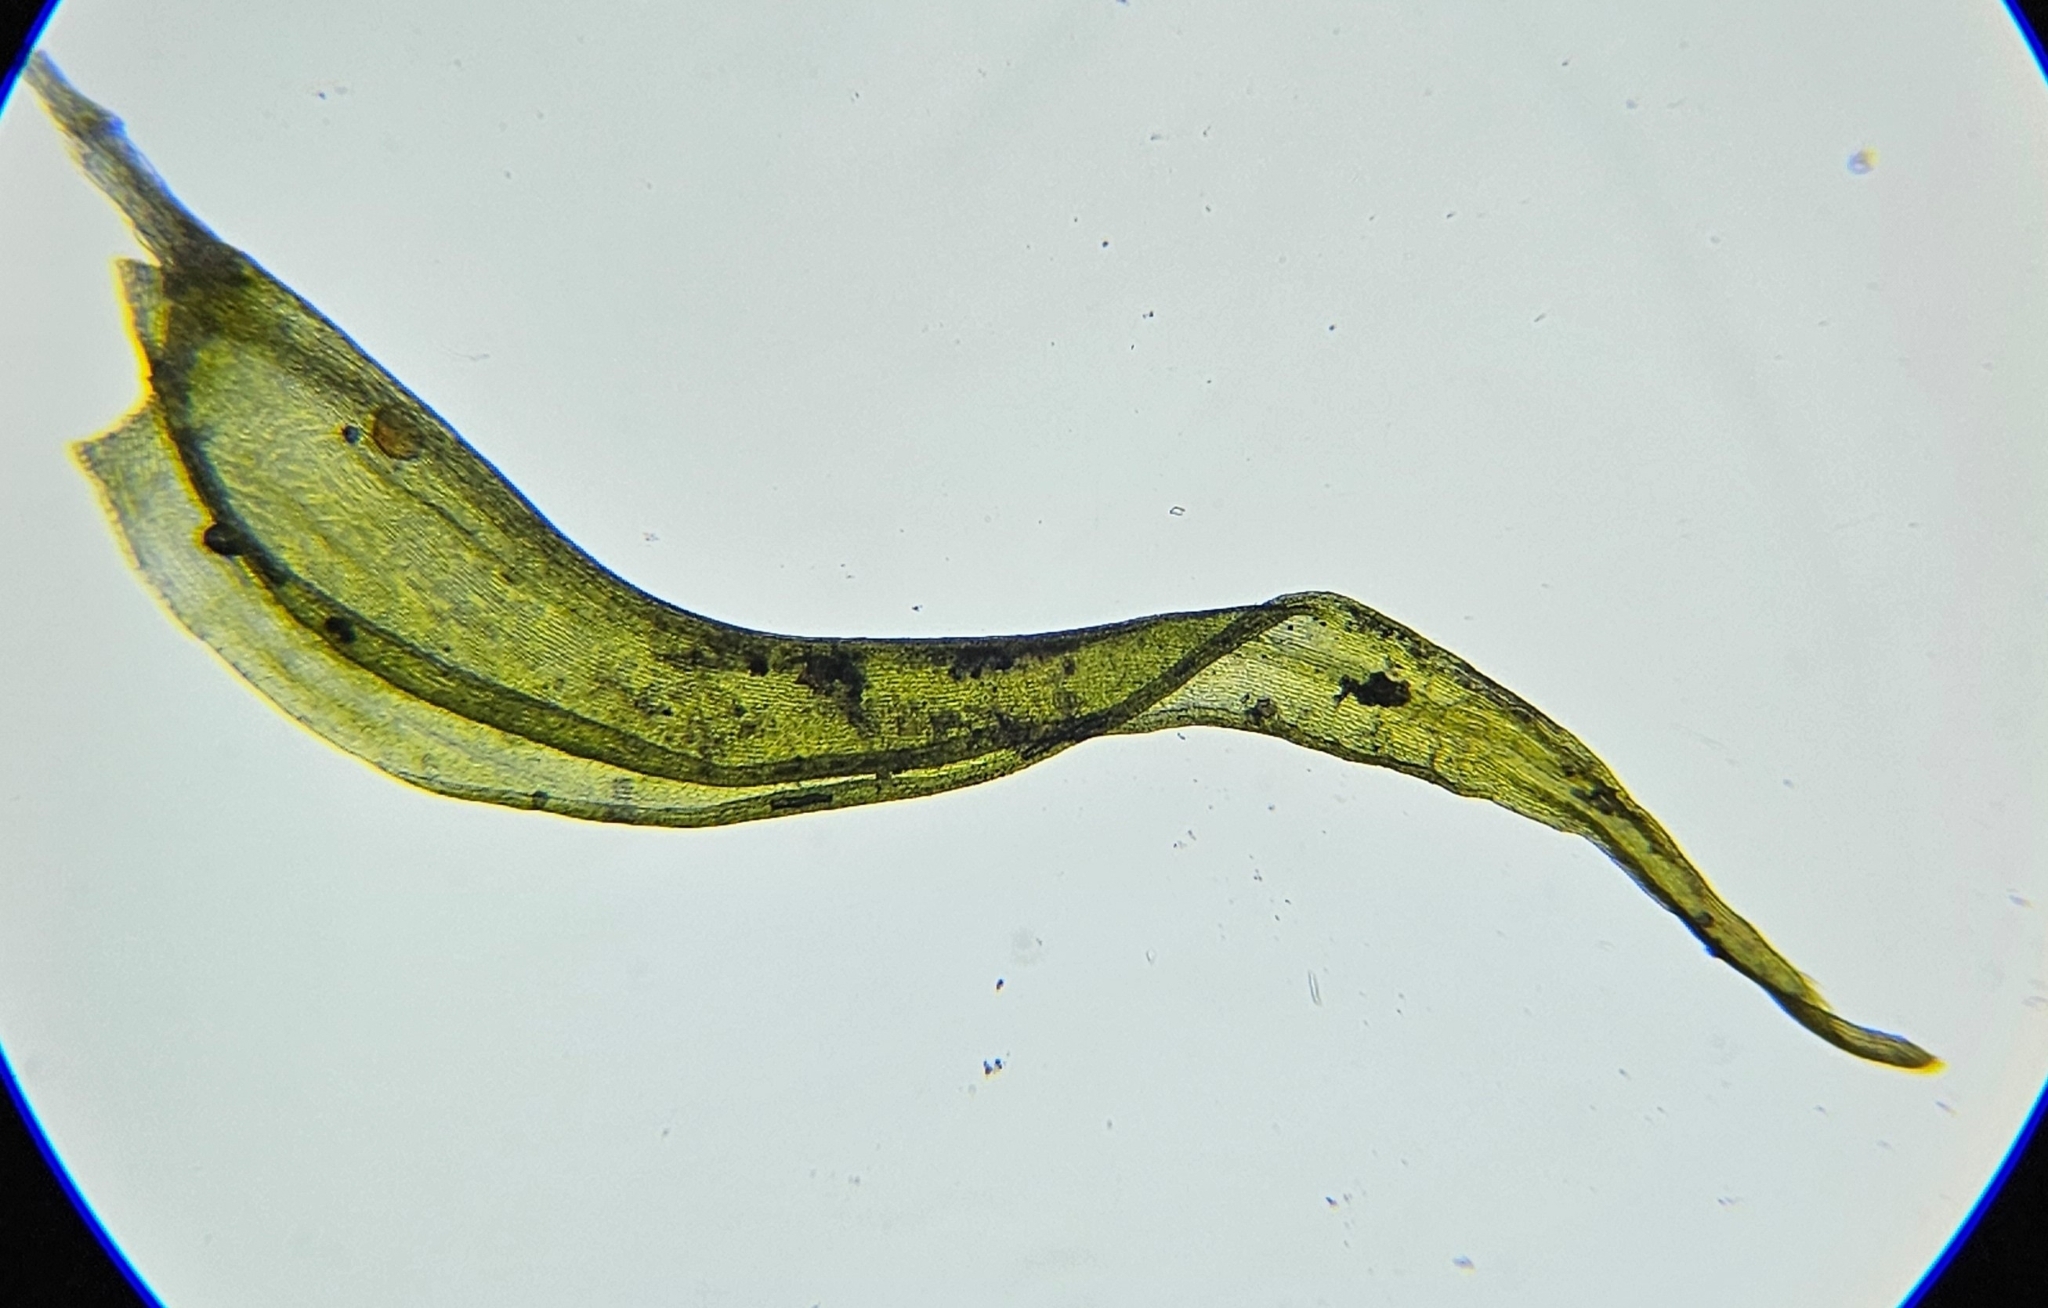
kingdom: Plantae
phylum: Bryophyta
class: Bryopsida
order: Grimmiales
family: Grimmiaceae
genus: Dilutineuron
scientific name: Dilutineuron fasciculare
